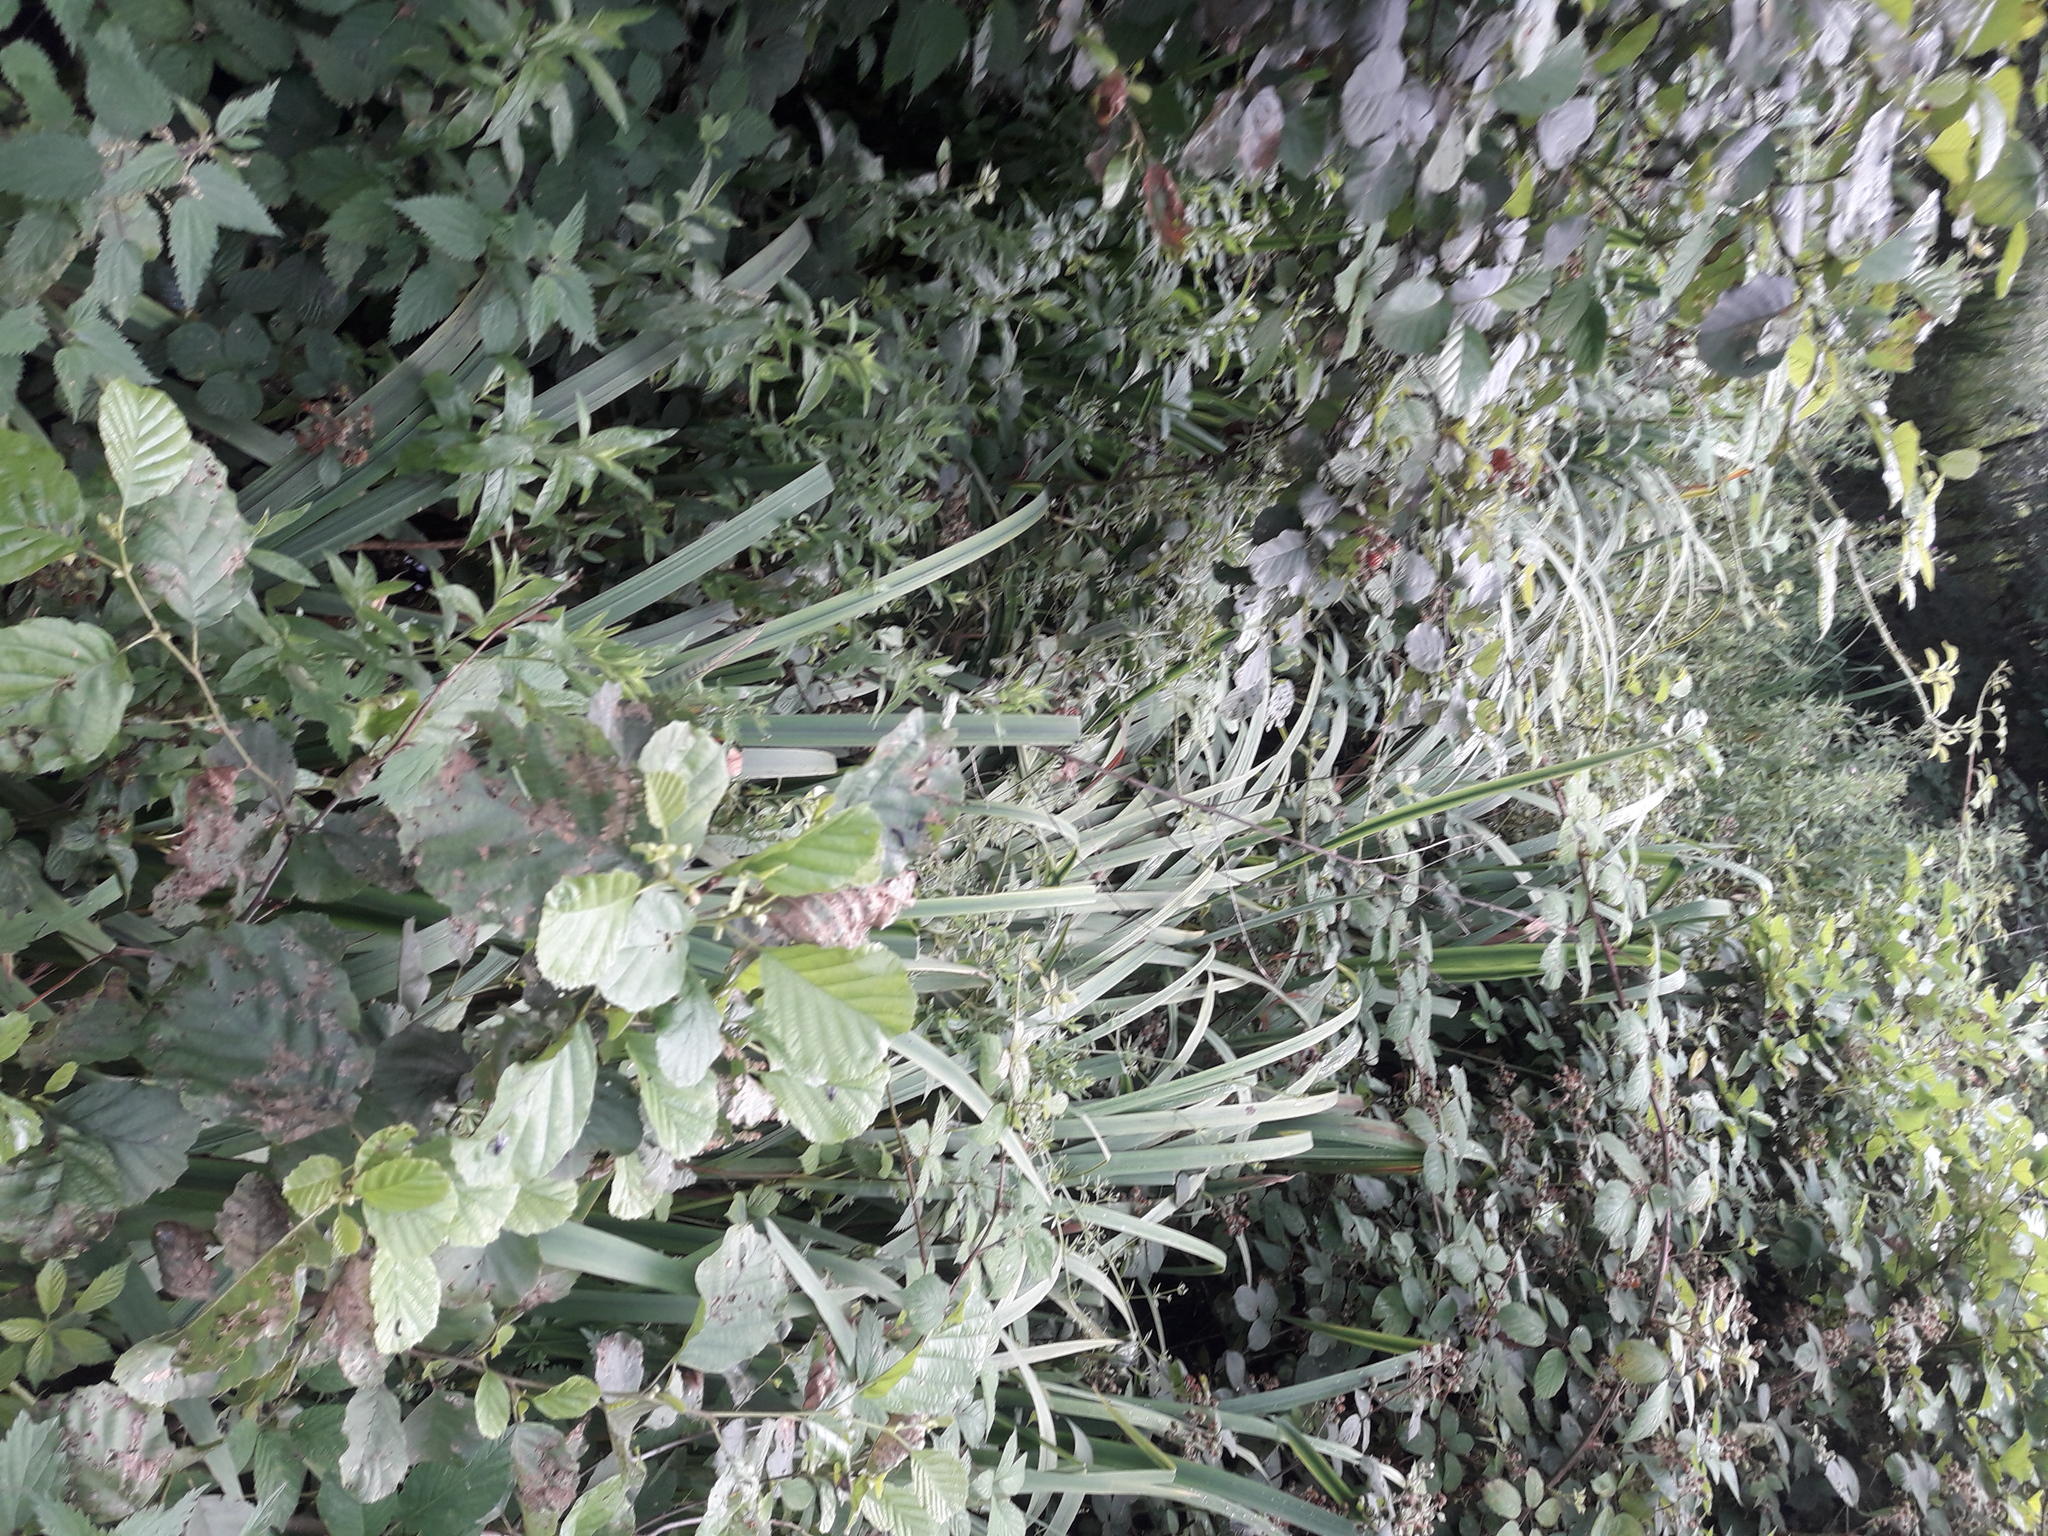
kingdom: Plantae
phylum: Tracheophyta
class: Magnoliopsida
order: Rosales
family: Urticaceae
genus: Urtica
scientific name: Urtica dioica
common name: Common nettle
